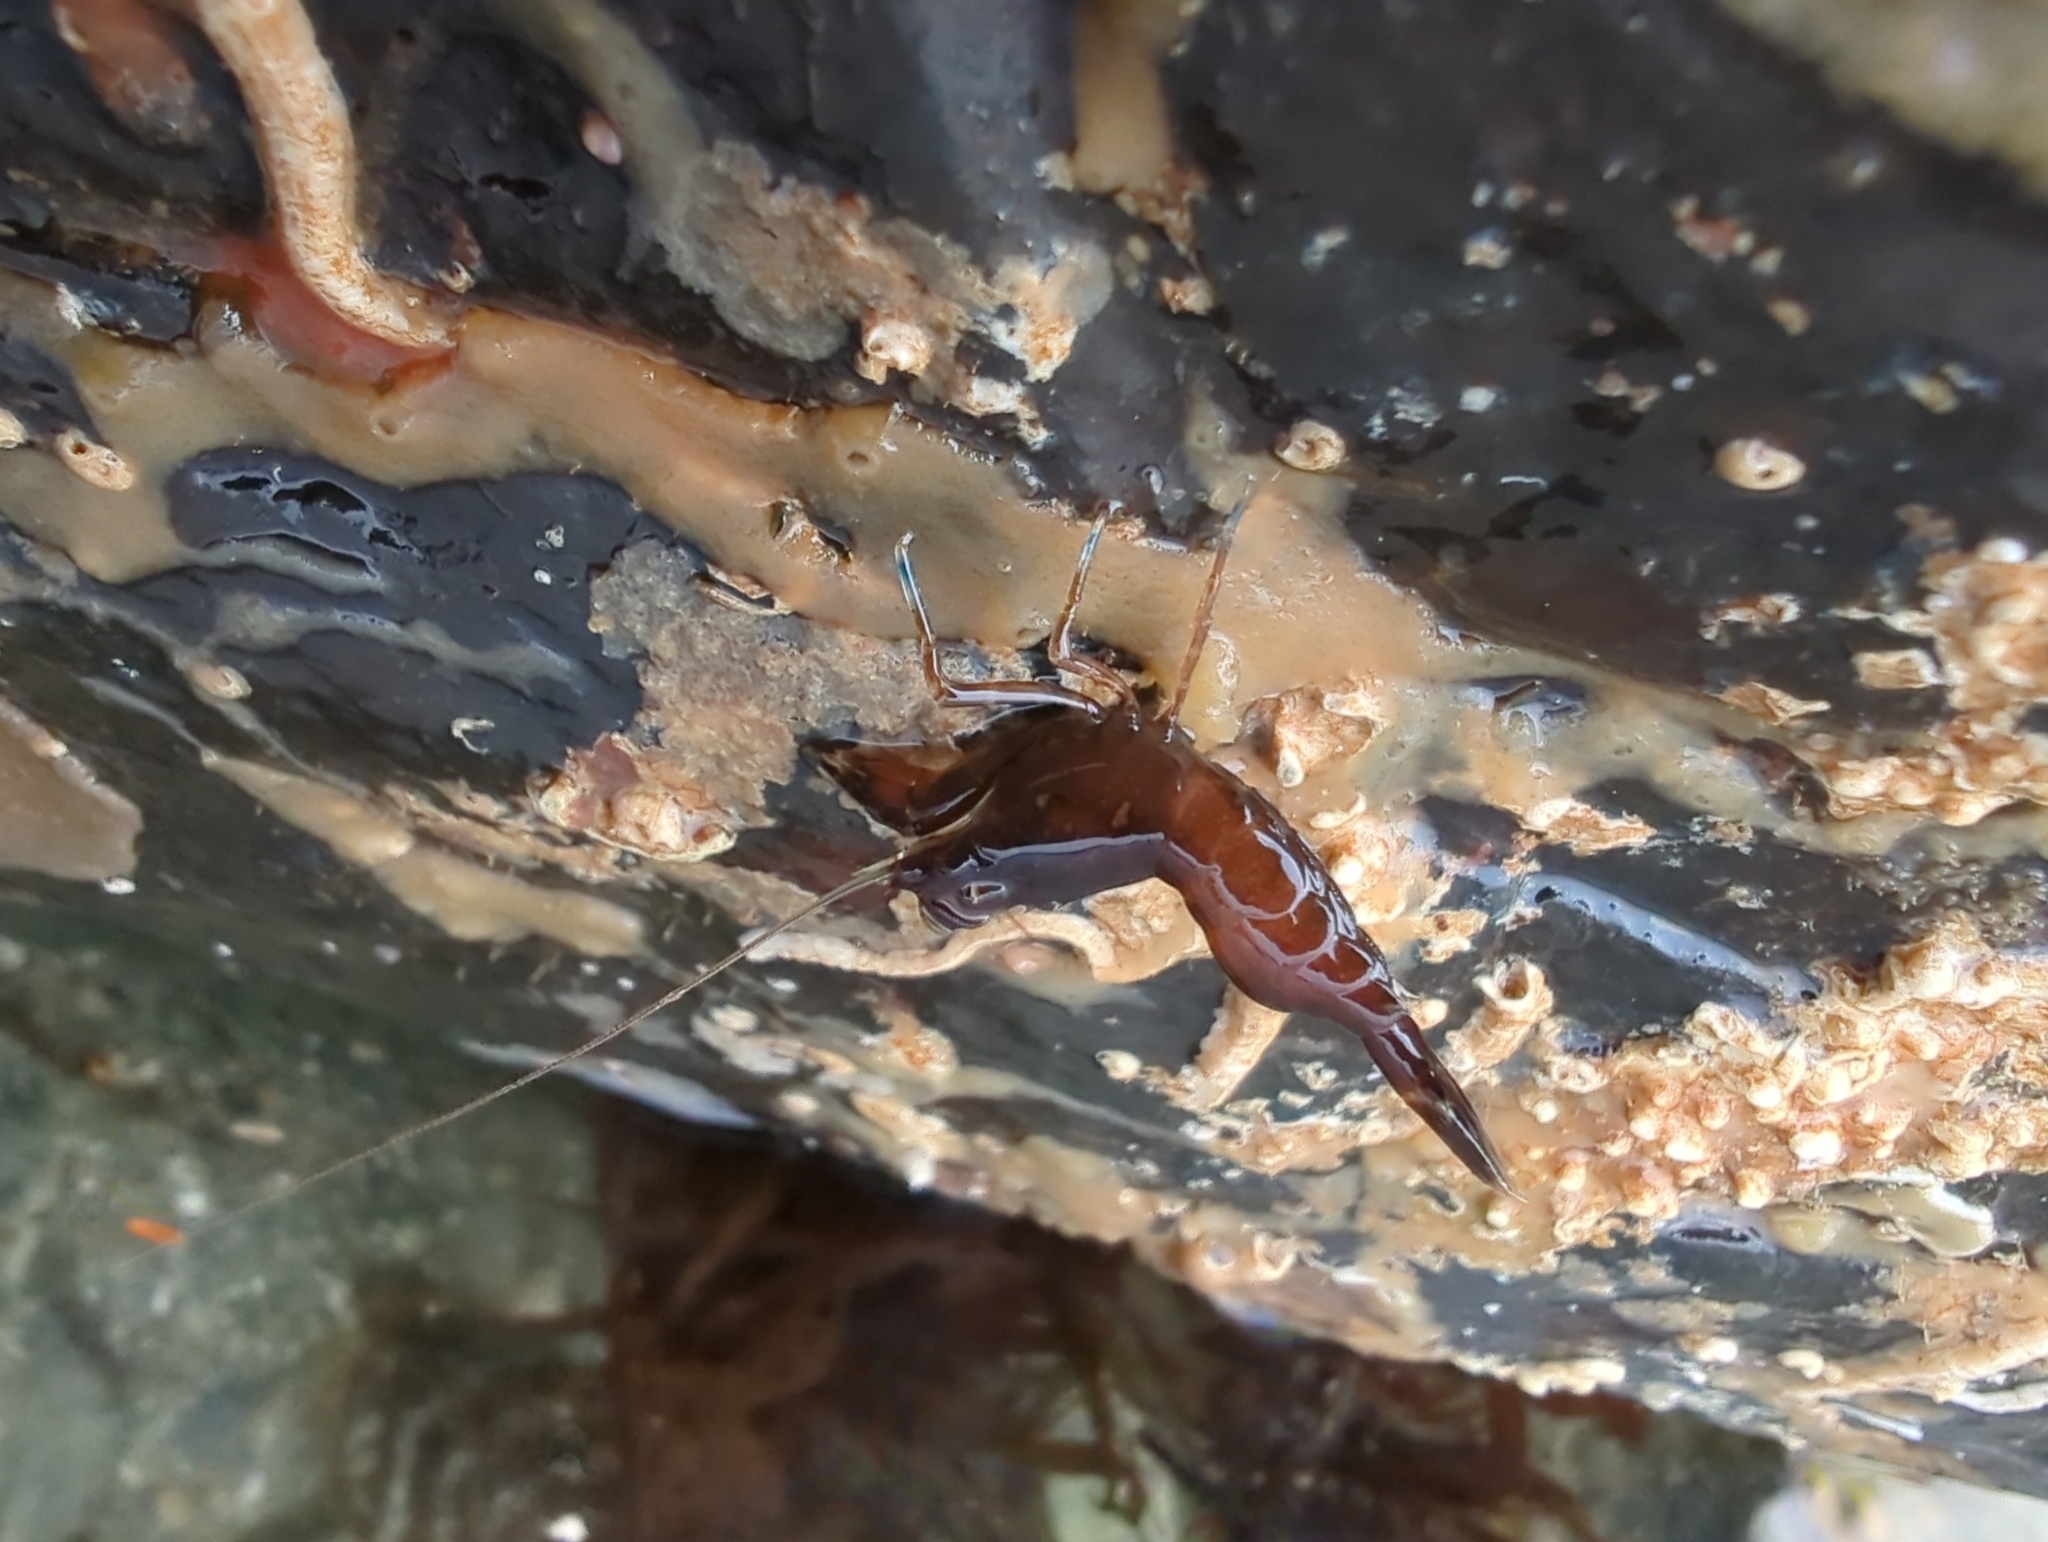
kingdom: Animalia
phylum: Arthropoda
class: Malacostraca
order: Decapoda
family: Thoridae
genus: Heptacarpus
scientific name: Heptacarpus brevirostris
